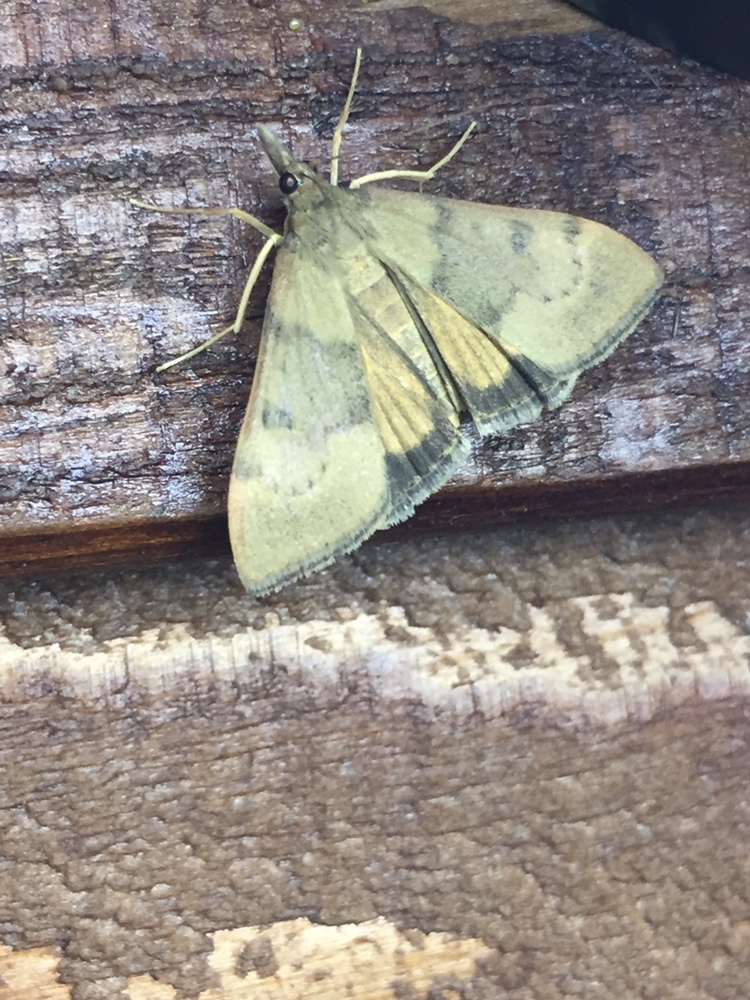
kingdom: Animalia
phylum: Arthropoda
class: Insecta
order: Lepidoptera
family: Crambidae
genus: Uresiphita
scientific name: Uresiphita
